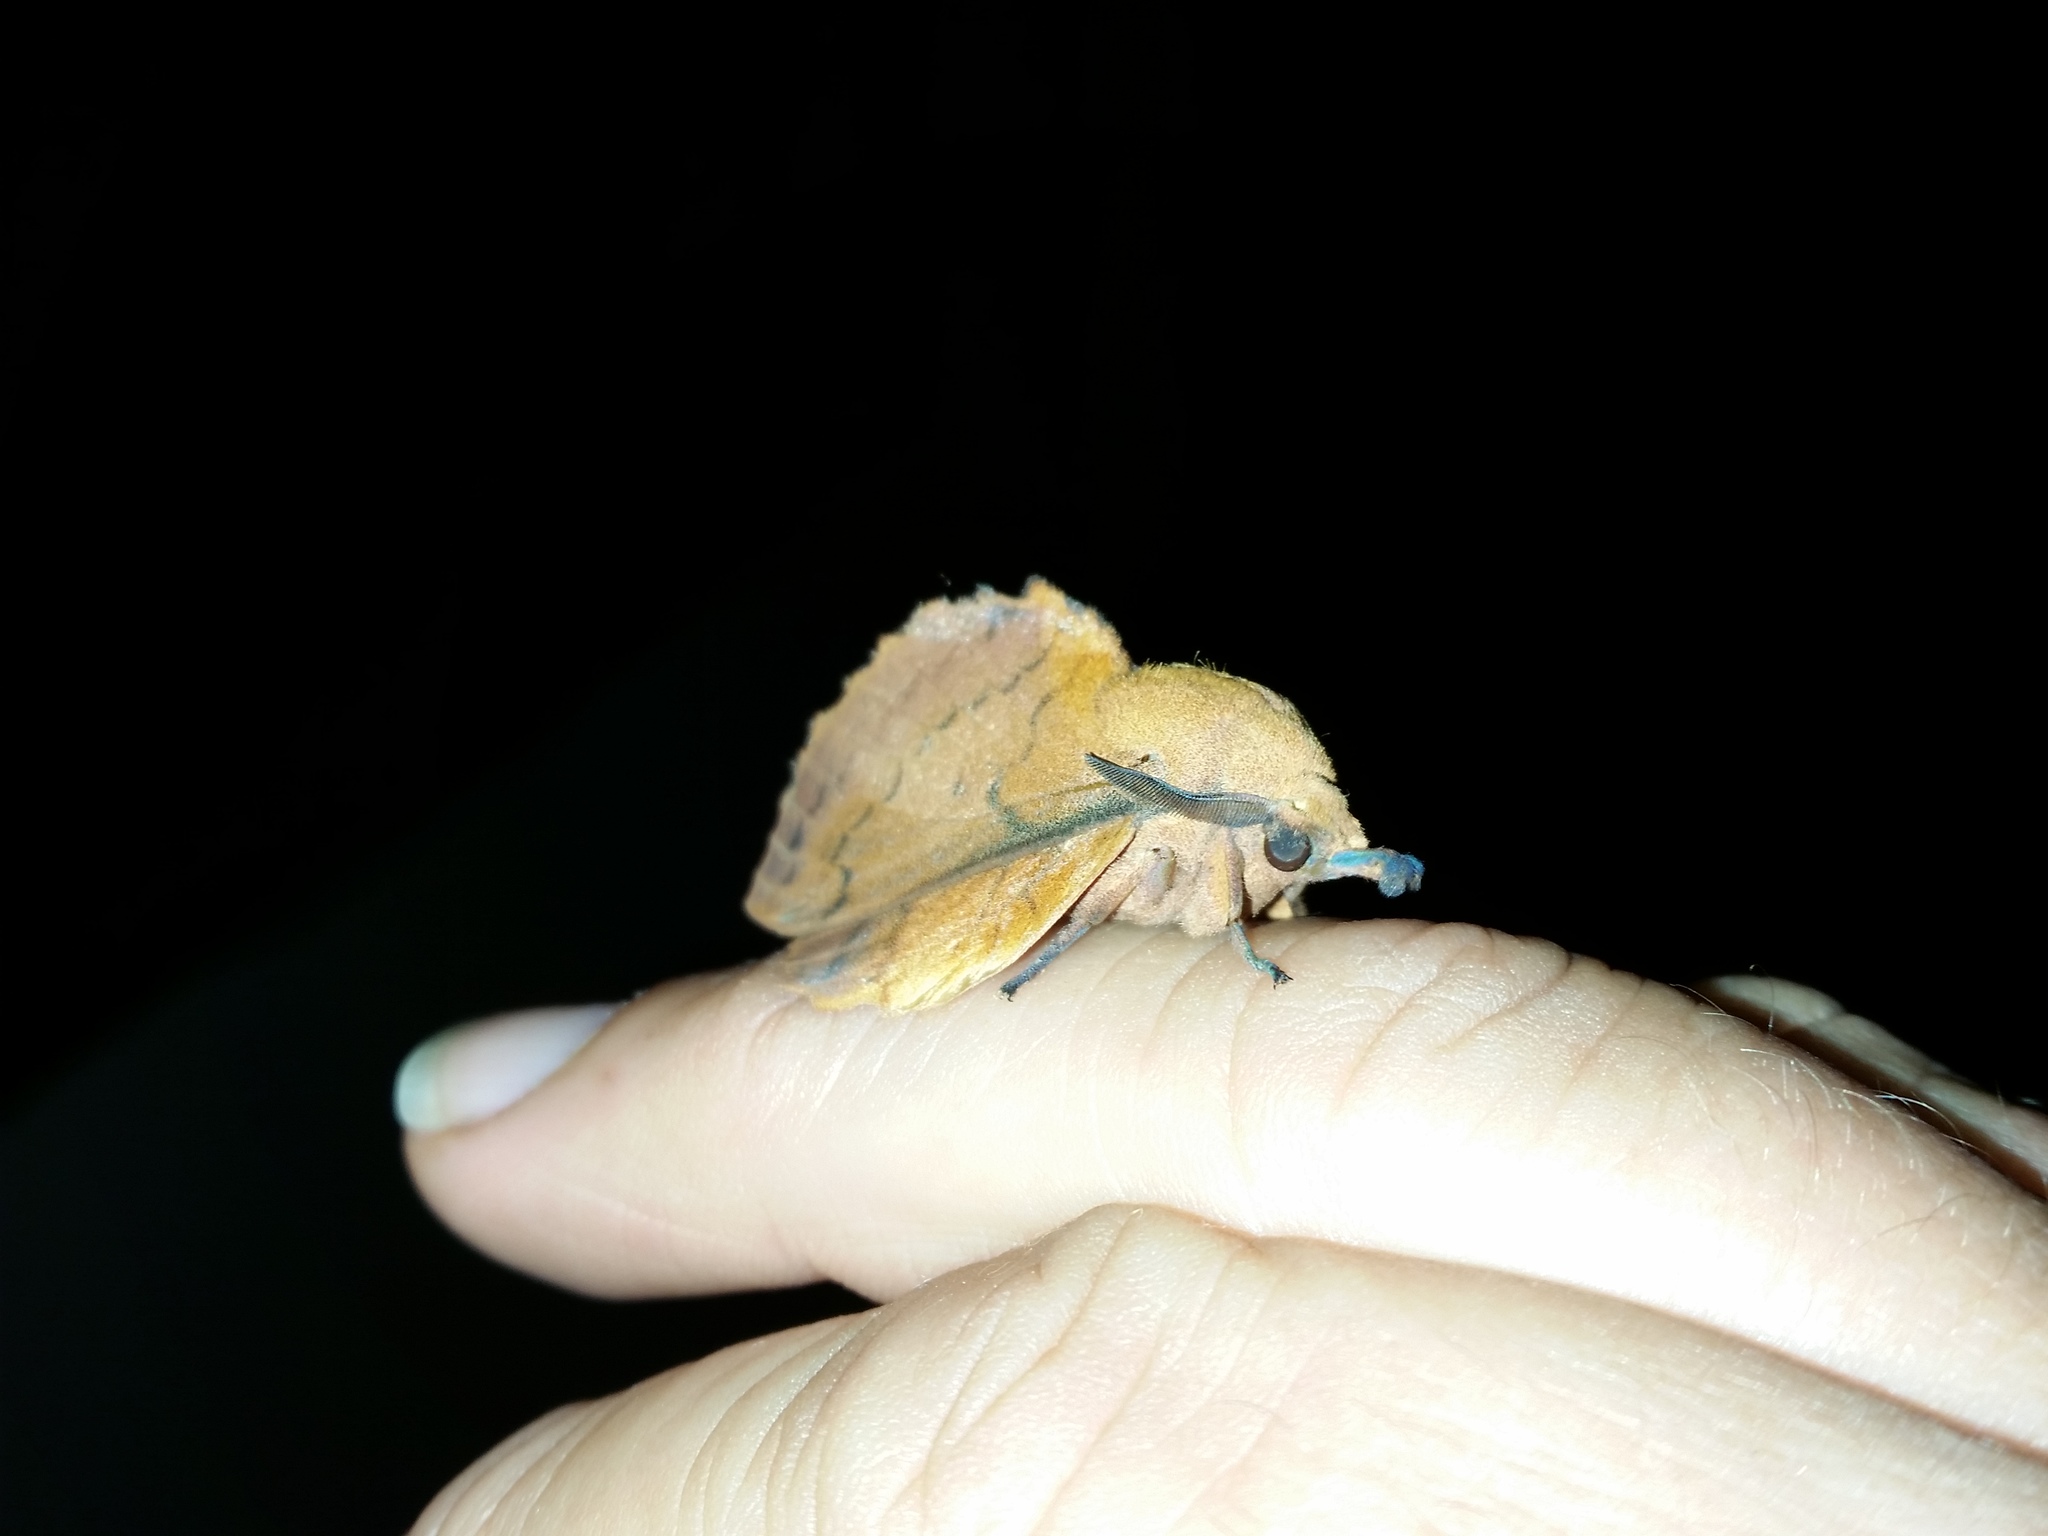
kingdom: Animalia
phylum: Arthropoda
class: Insecta
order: Lepidoptera
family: Lasiocampidae
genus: Gastropacha
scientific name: Gastropacha quercifolia
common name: Lappet
